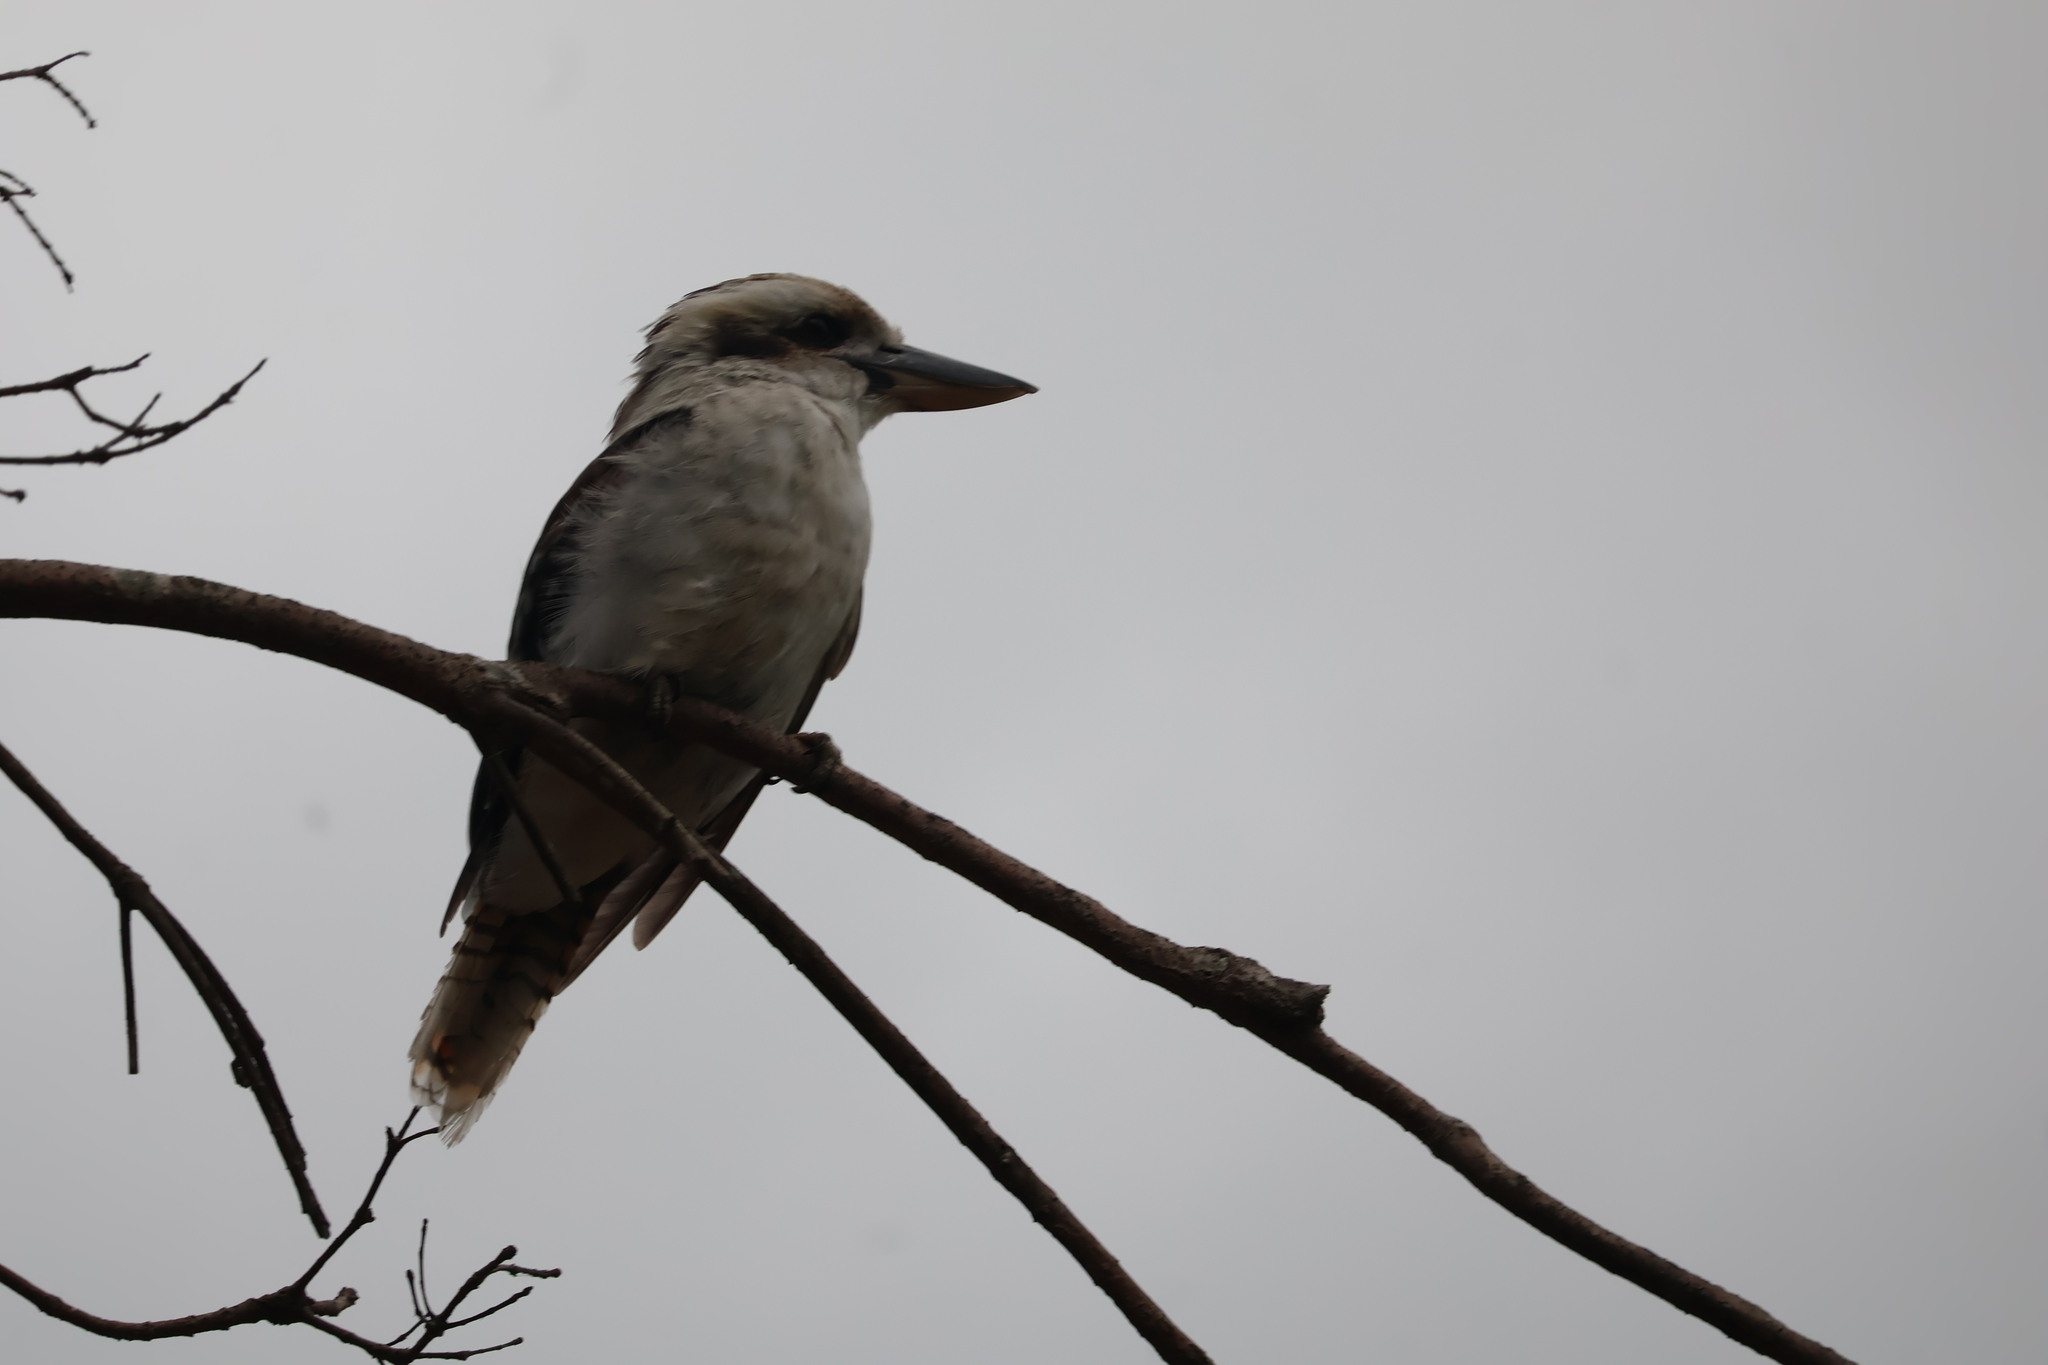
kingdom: Animalia
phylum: Chordata
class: Aves
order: Coraciiformes
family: Alcedinidae
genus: Dacelo
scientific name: Dacelo novaeguineae
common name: Laughing kookaburra
